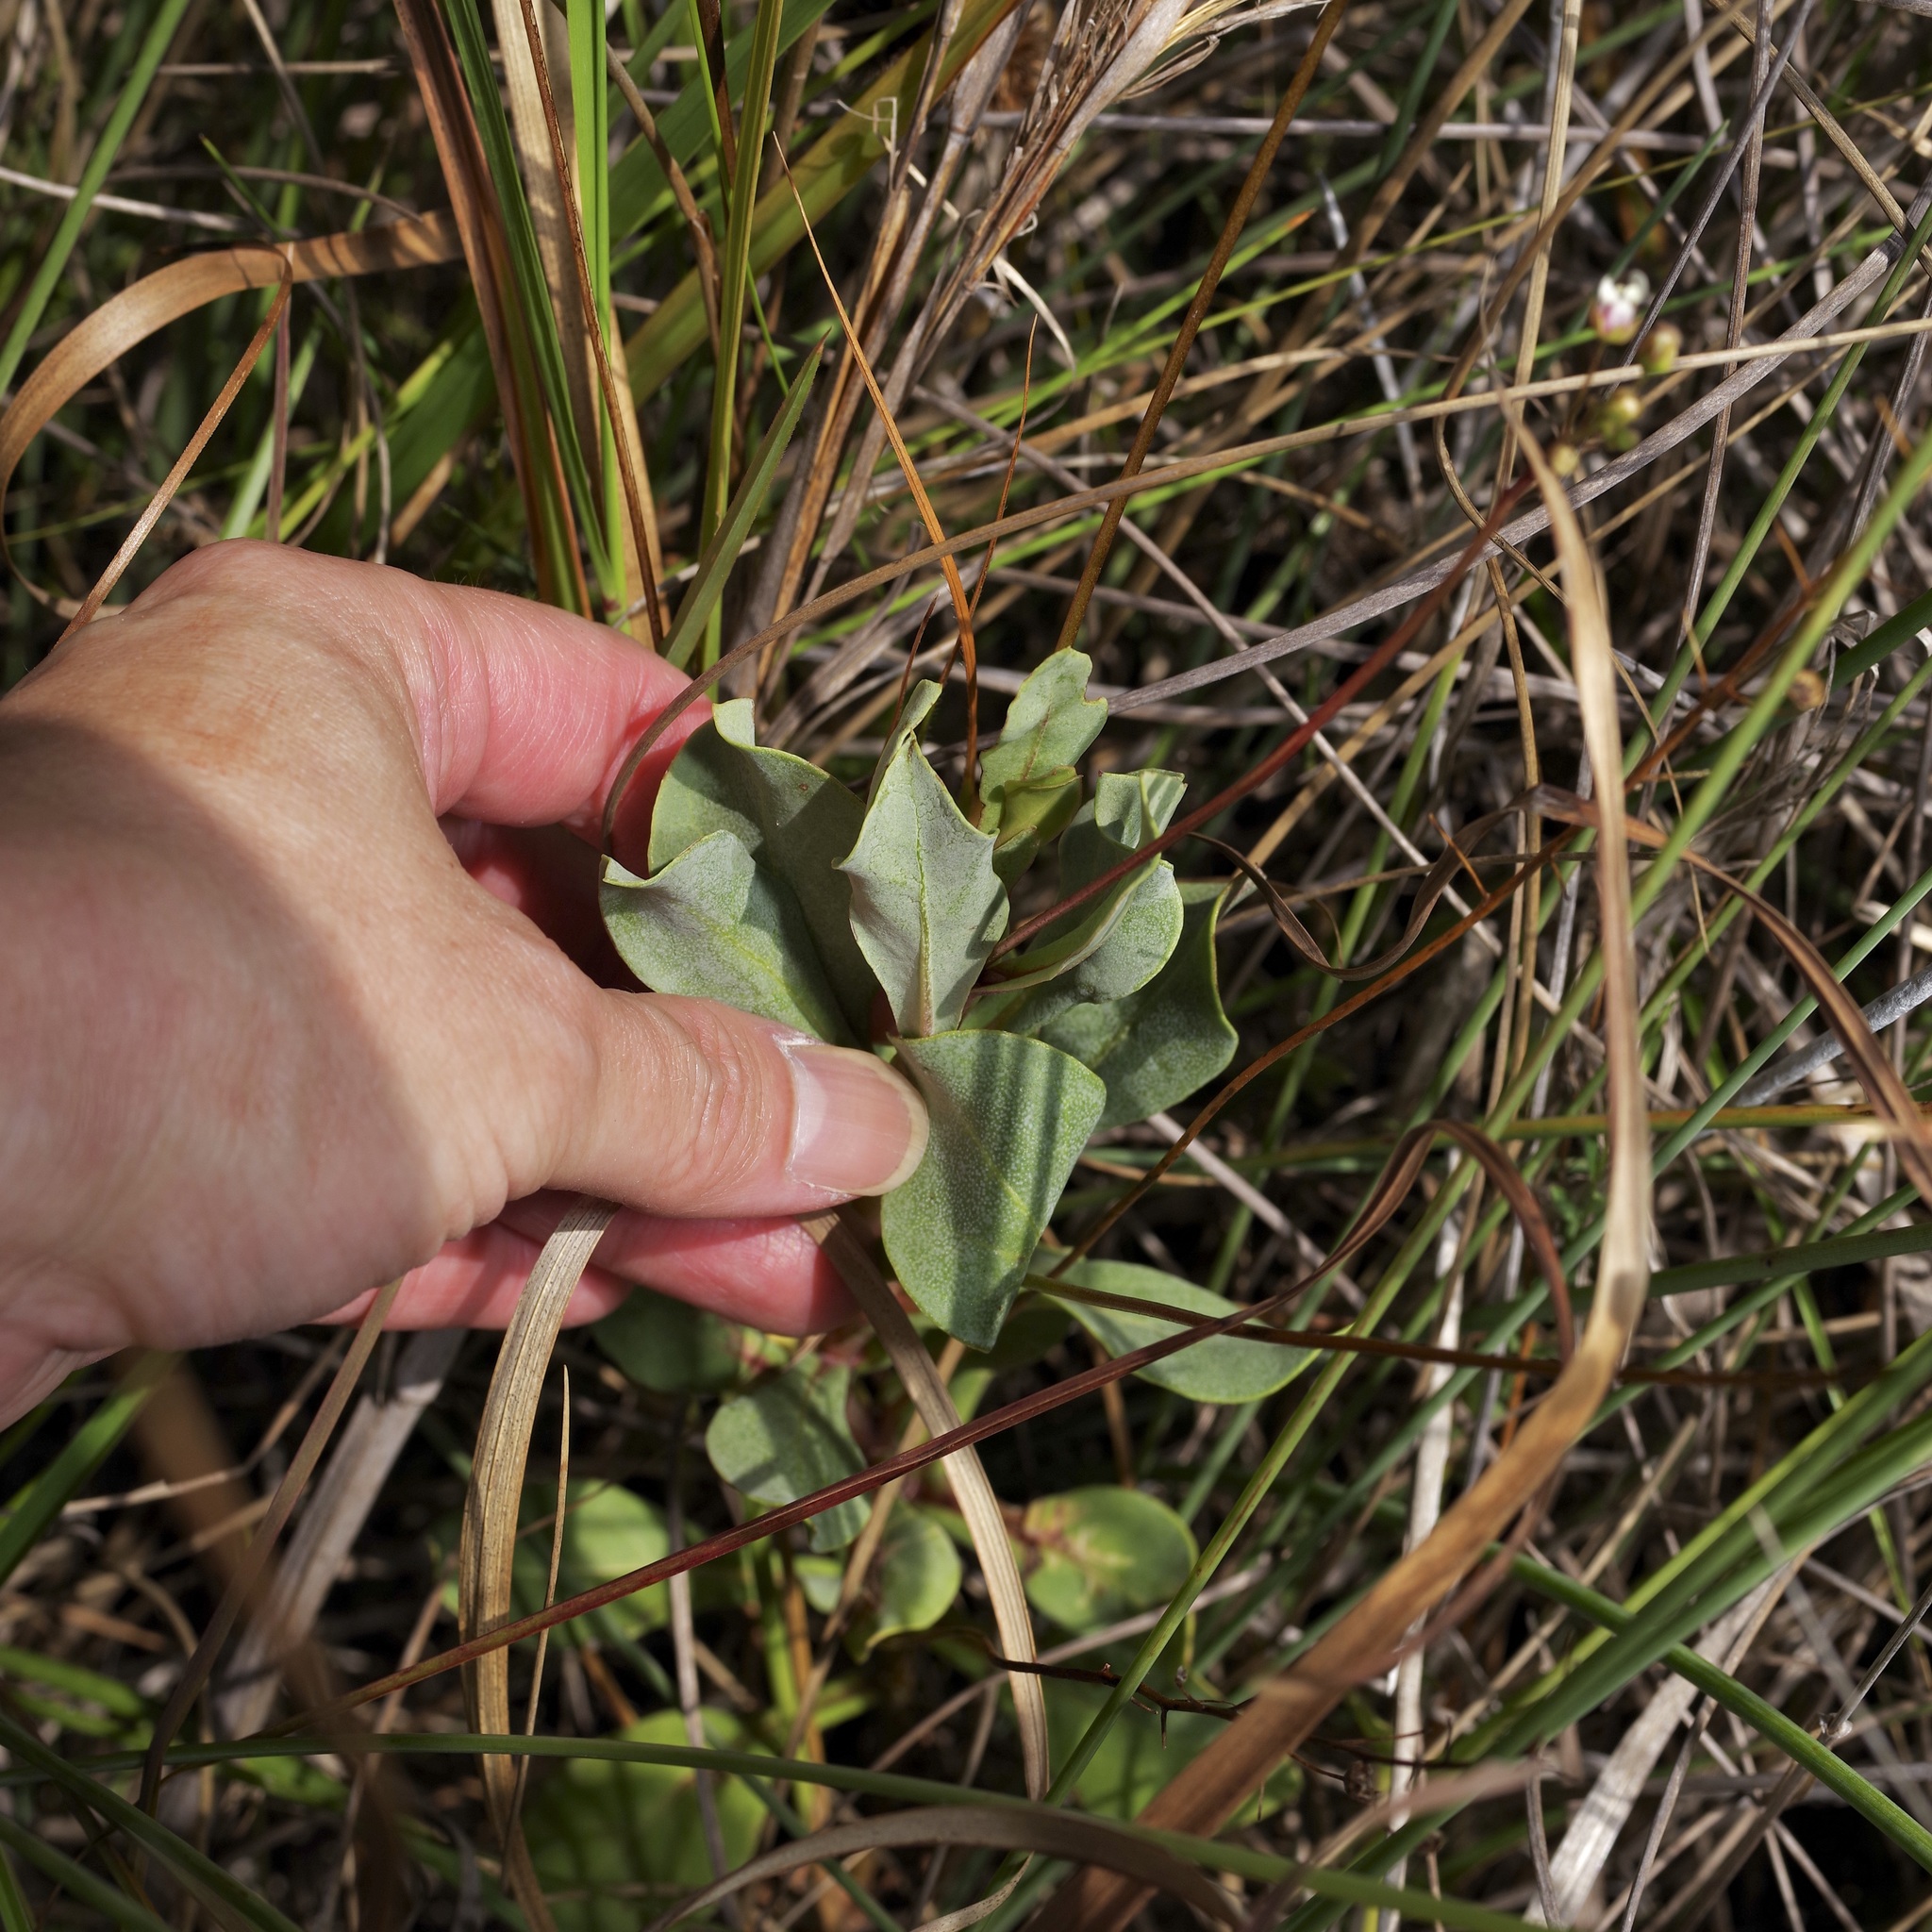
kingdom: Plantae
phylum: Tracheophyta
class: Magnoliopsida
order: Ericales
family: Primulaceae
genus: Samolus
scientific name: Samolus ebracteatus
